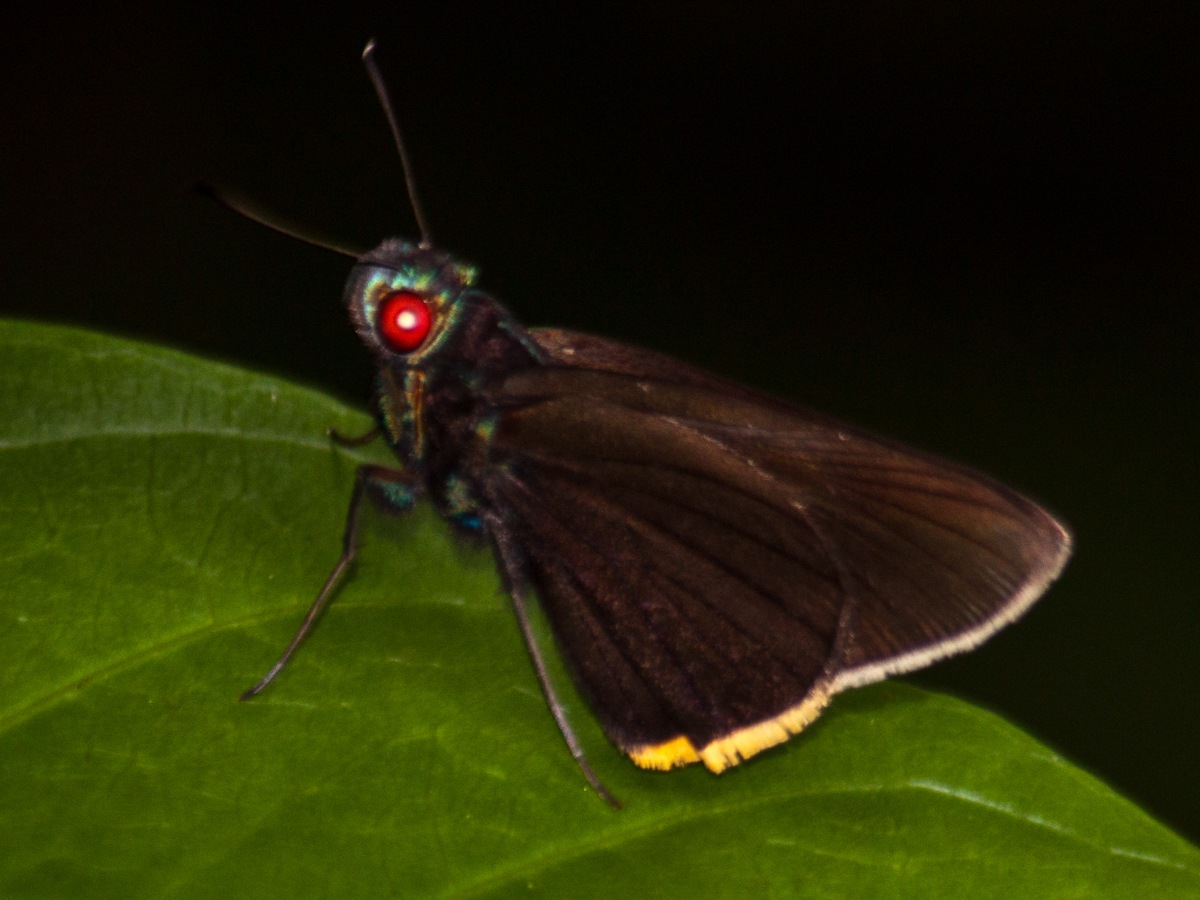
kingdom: Animalia
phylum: Arthropoda
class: Insecta
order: Lepidoptera
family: Hesperiidae
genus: Matapa
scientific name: Matapa sasivarna
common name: Black-veined redeye
